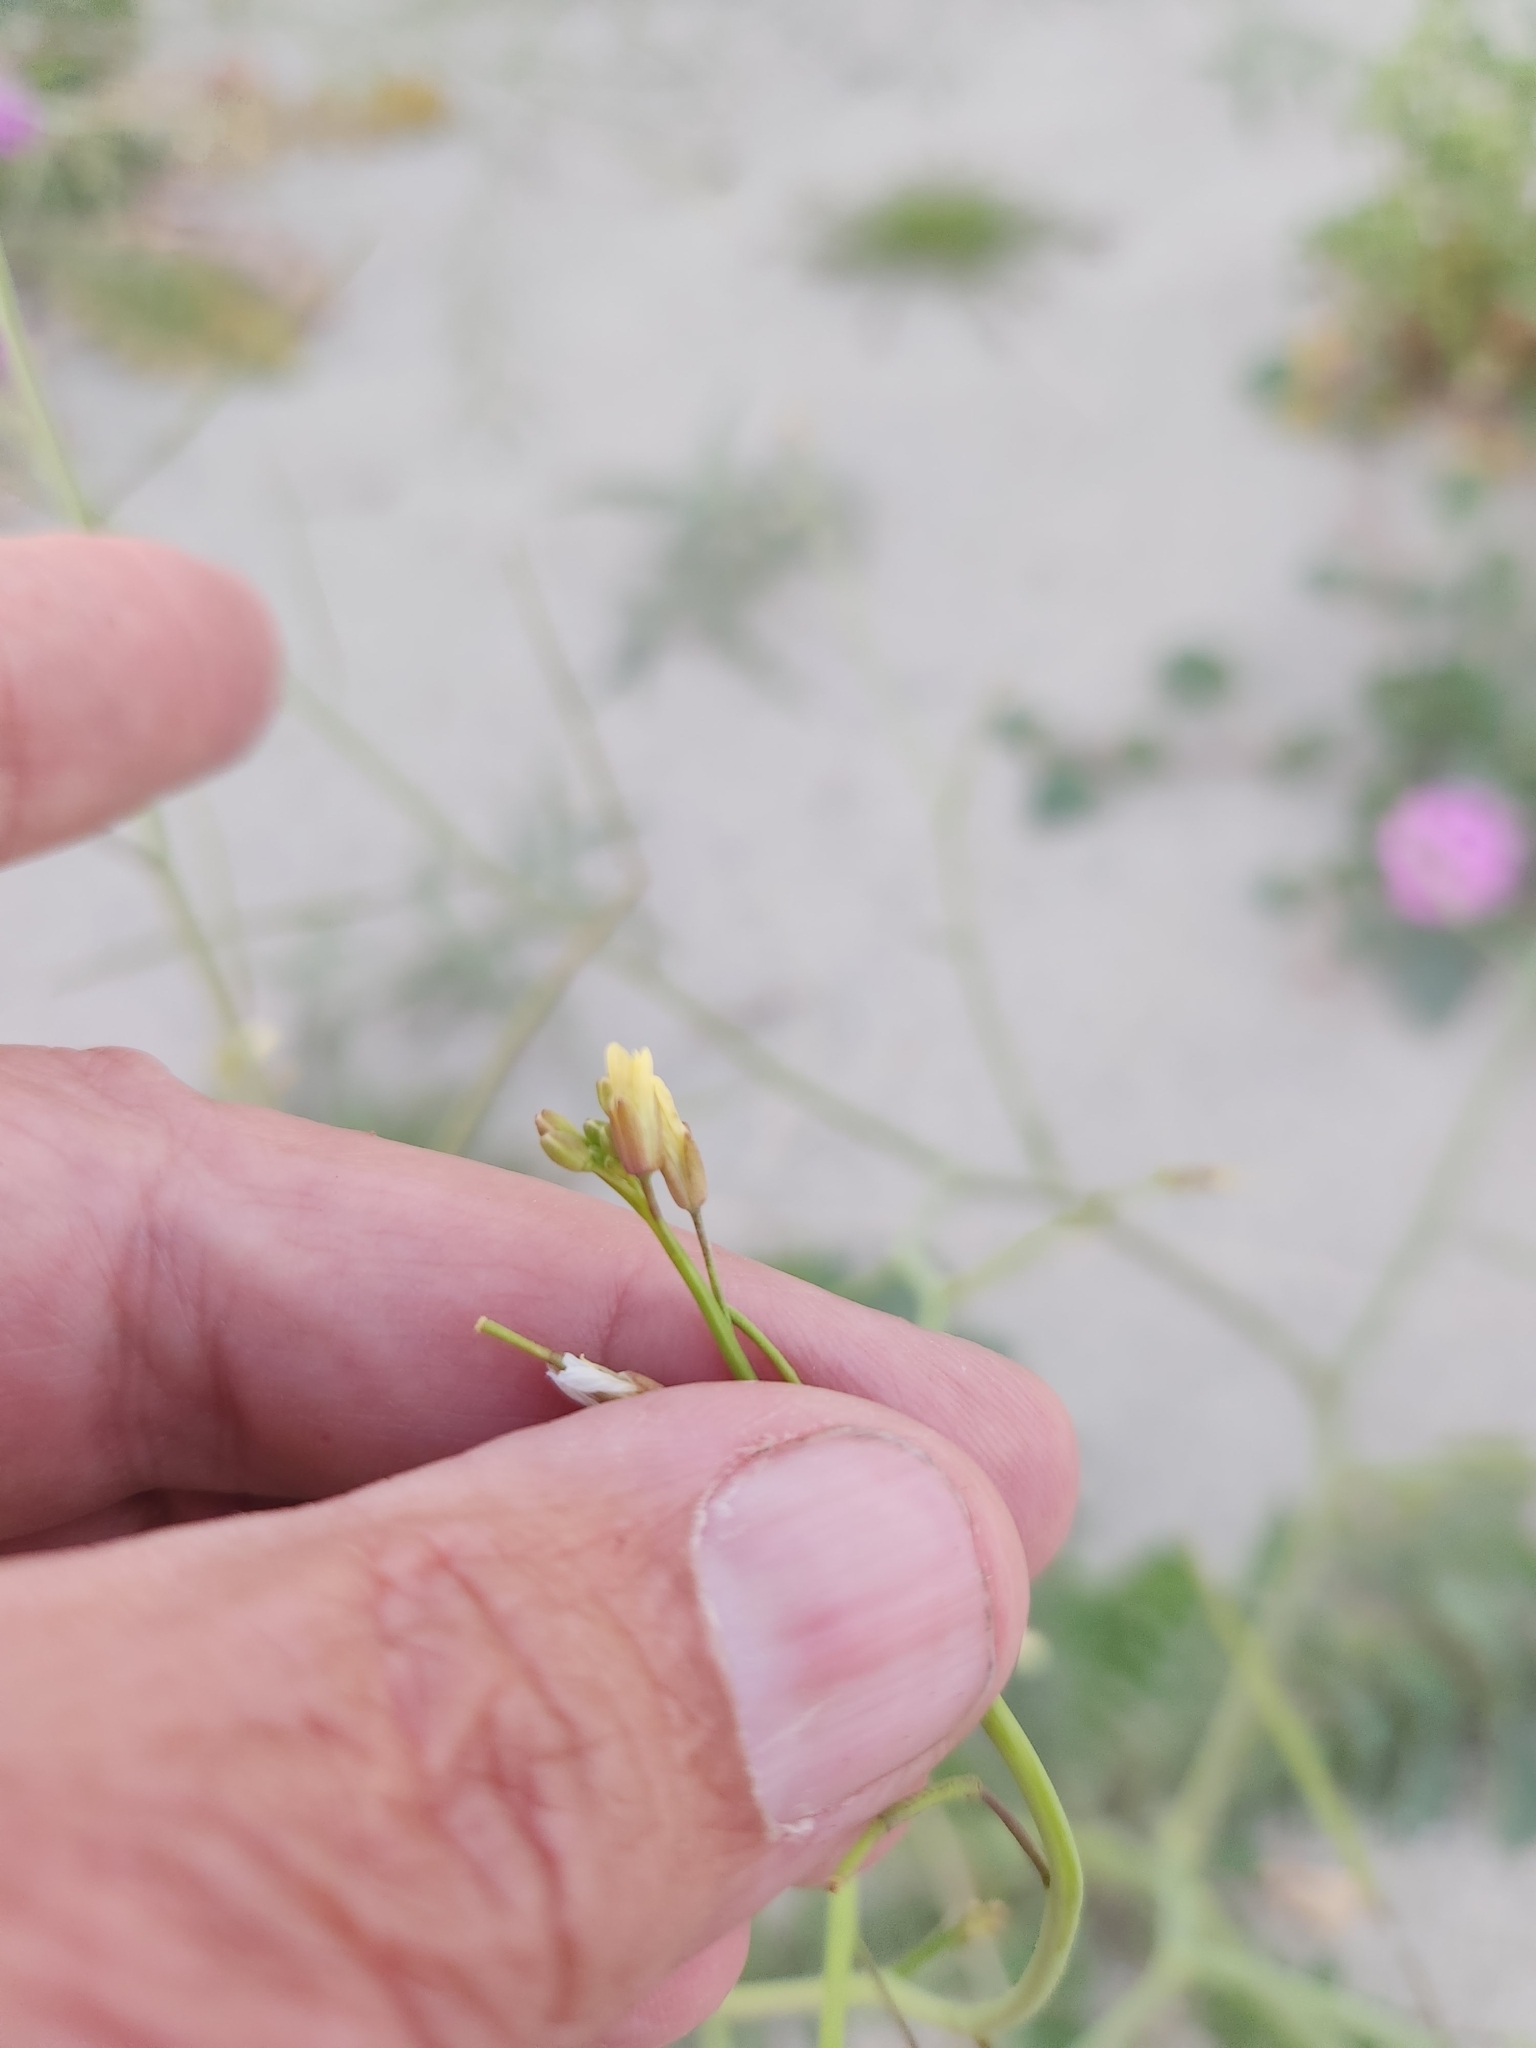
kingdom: Plantae
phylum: Tracheophyta
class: Magnoliopsida
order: Brassicales
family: Brassicaceae
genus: Brassica
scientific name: Brassica tournefortii
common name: Pale cabbage
